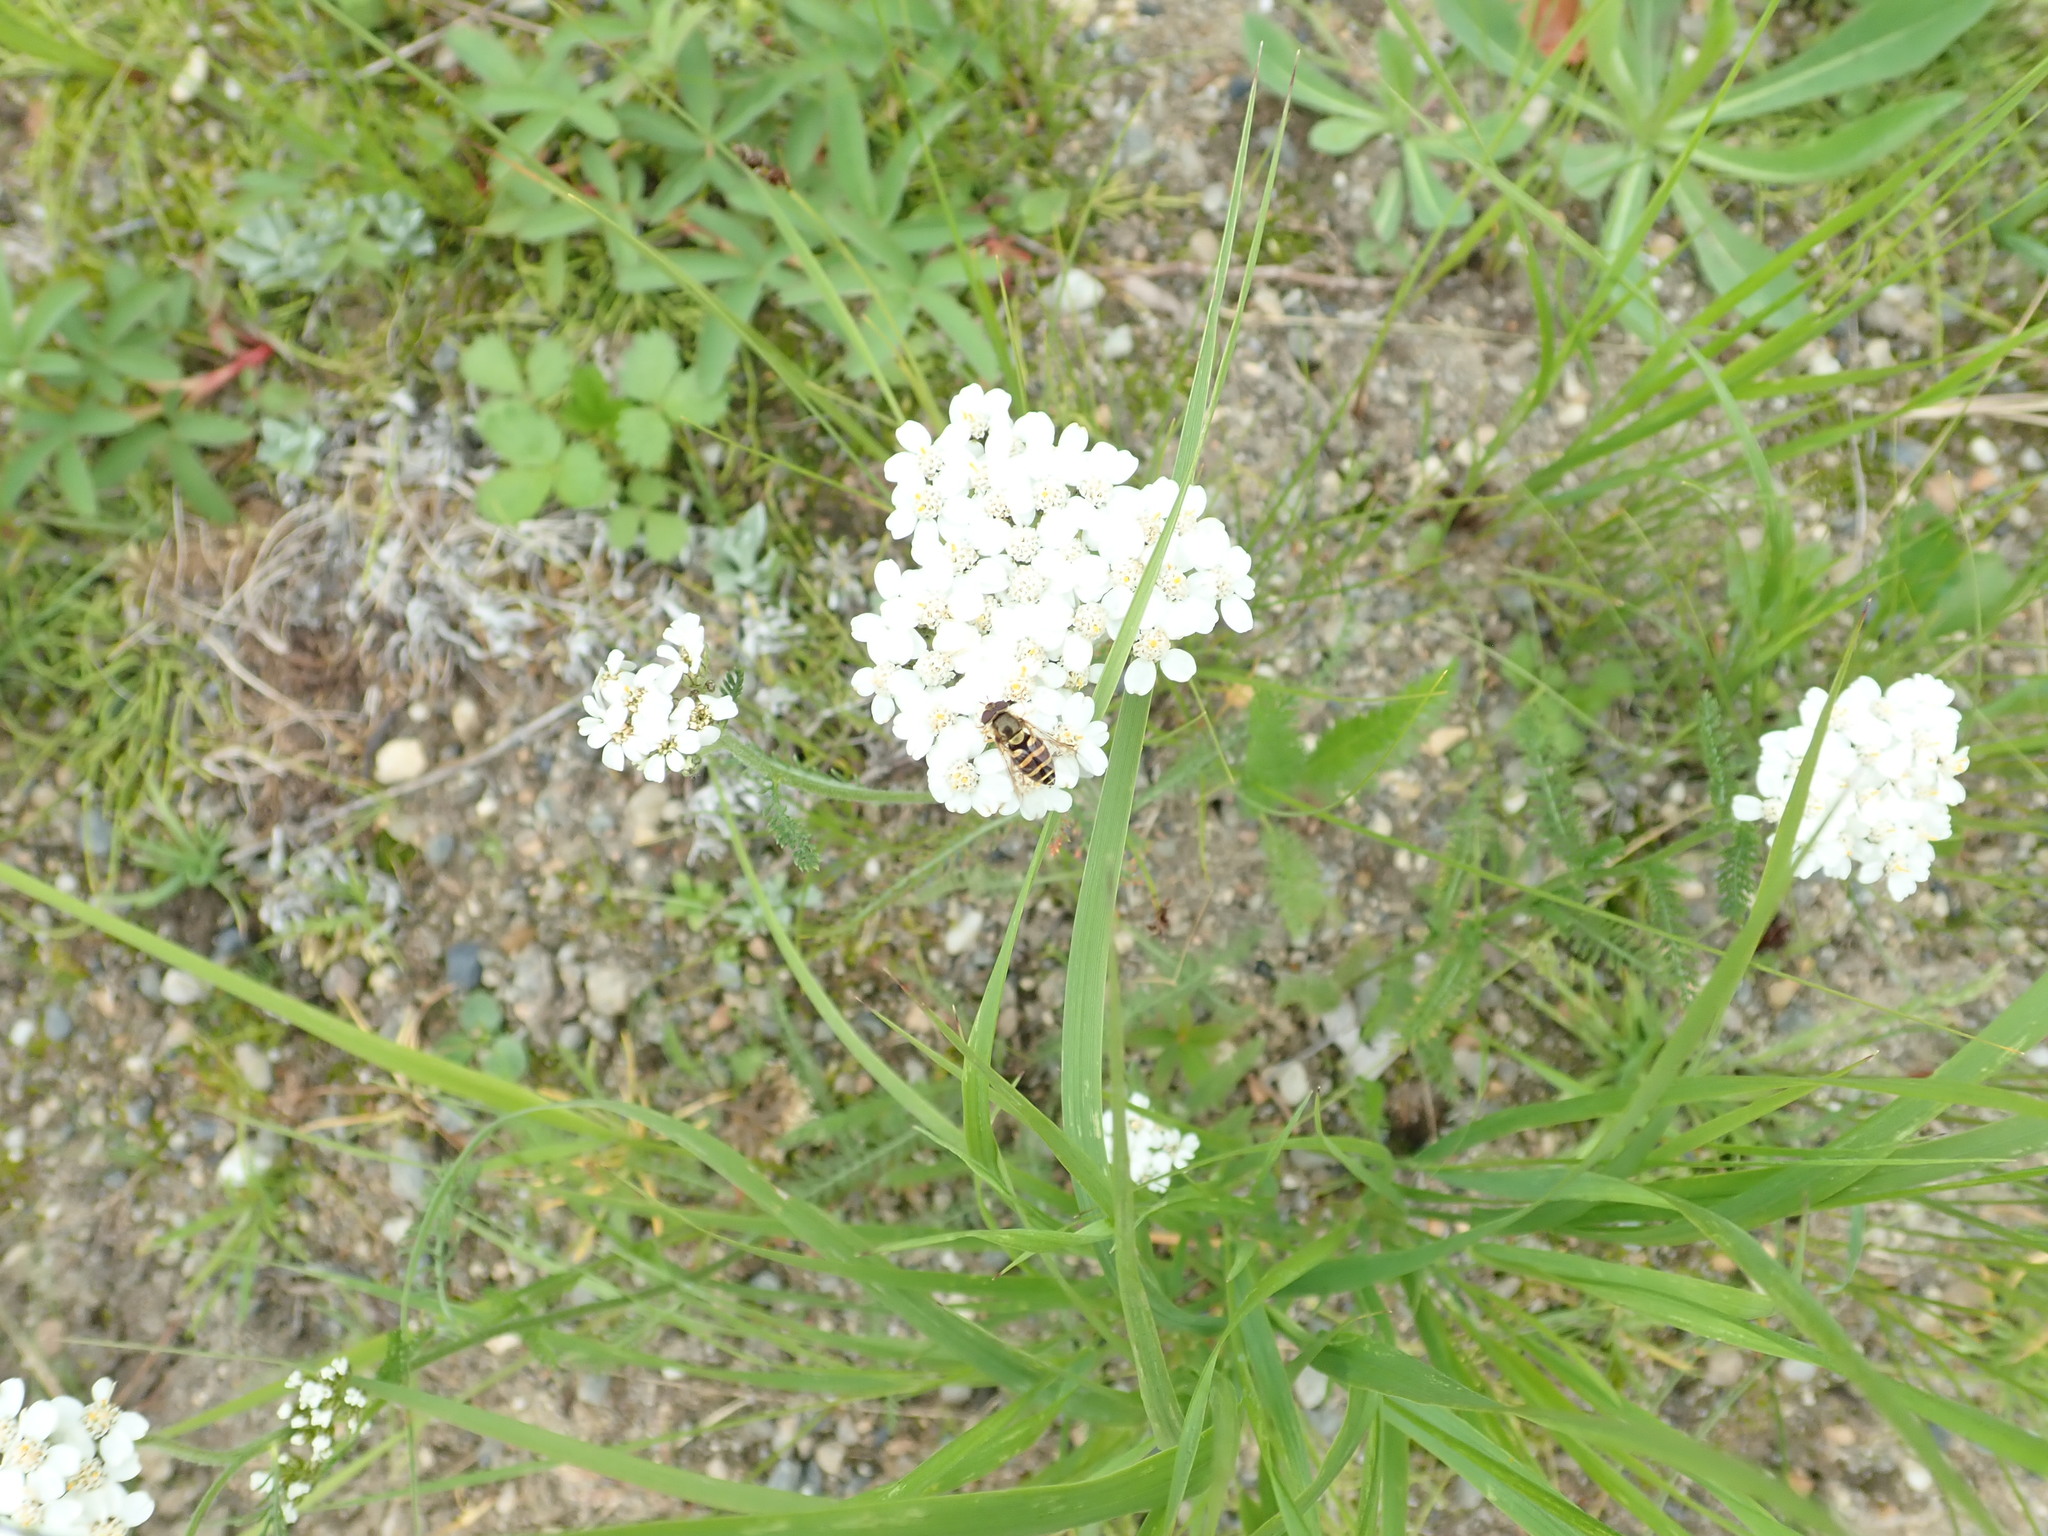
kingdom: Plantae
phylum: Tracheophyta
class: Magnoliopsida
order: Asterales
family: Asteraceae
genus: Achillea
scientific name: Achillea millefolium
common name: Yarrow
